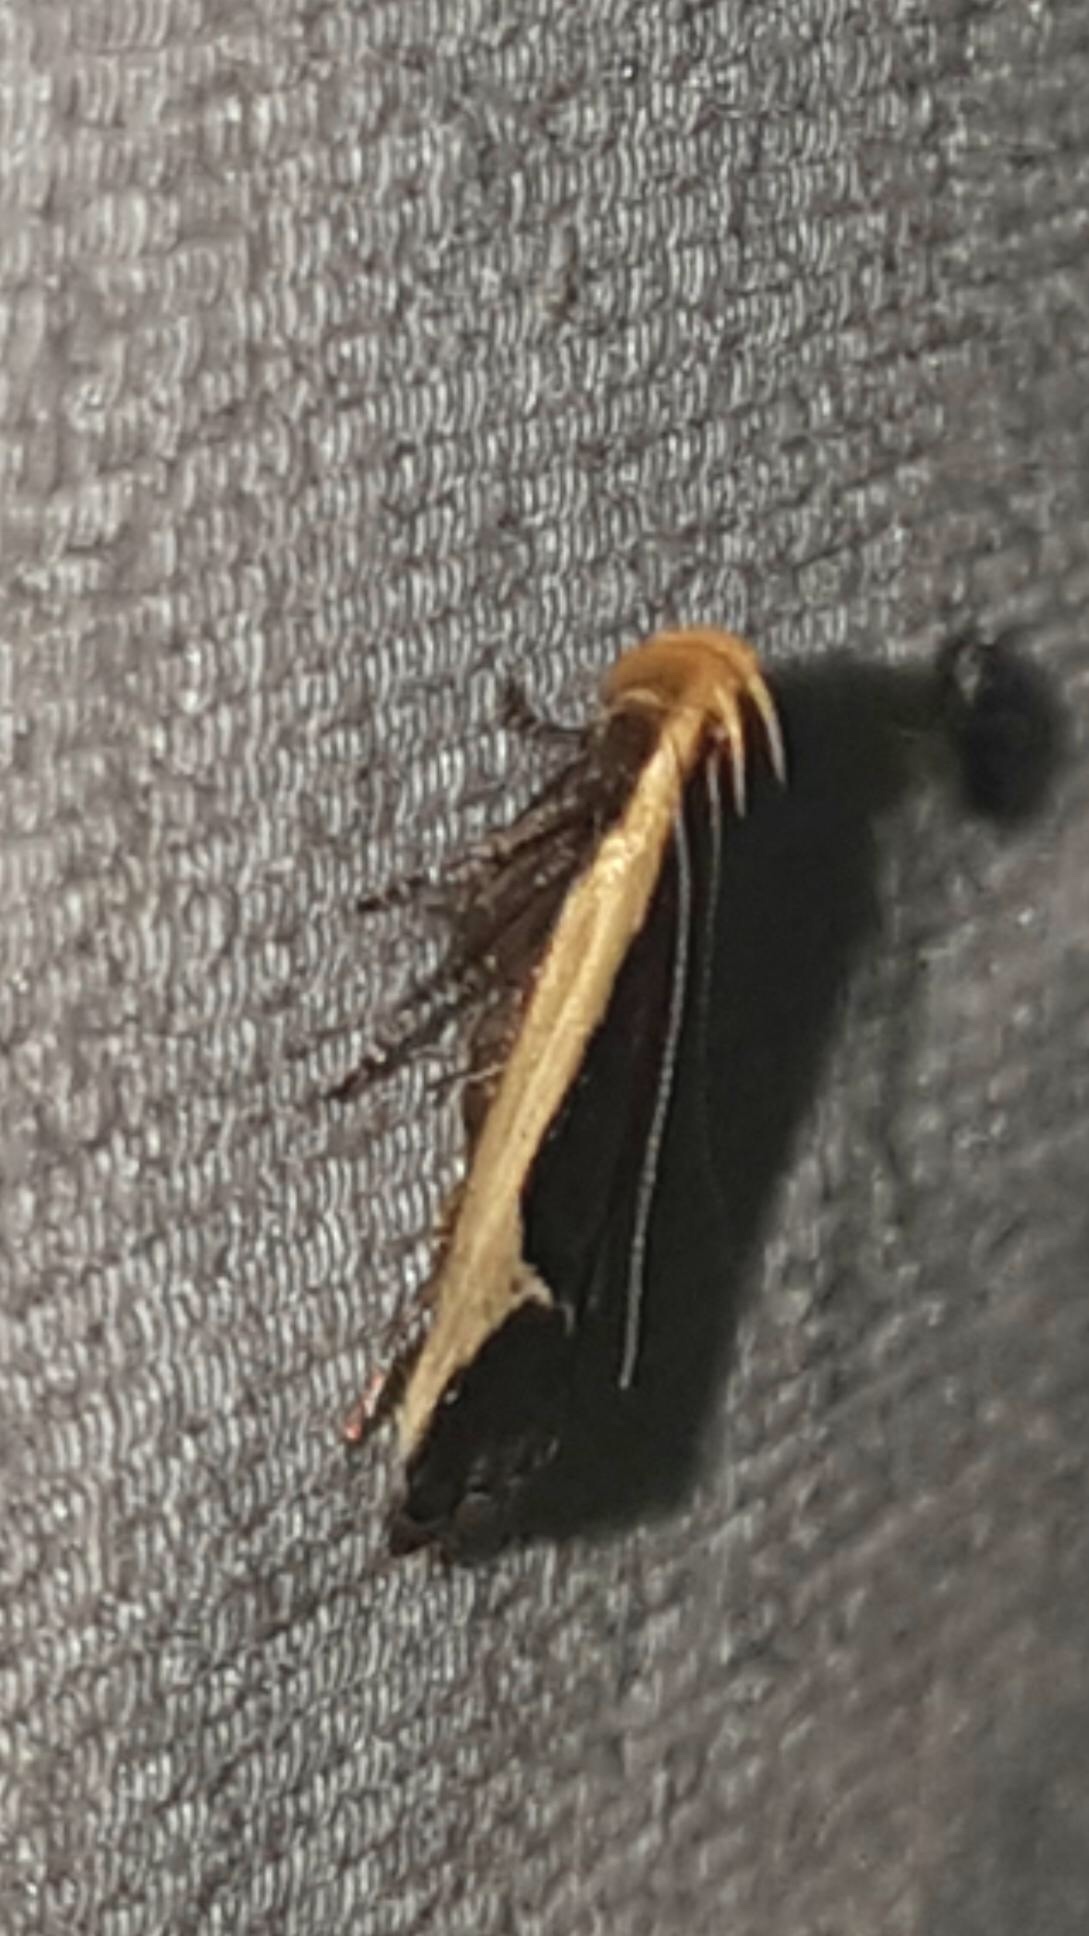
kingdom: Animalia
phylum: Arthropoda
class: Insecta
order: Lepidoptera
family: Gelechiidae
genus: Dichomeris
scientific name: Dichomeris flavocostella
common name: Cream-edged dichomeris moth
